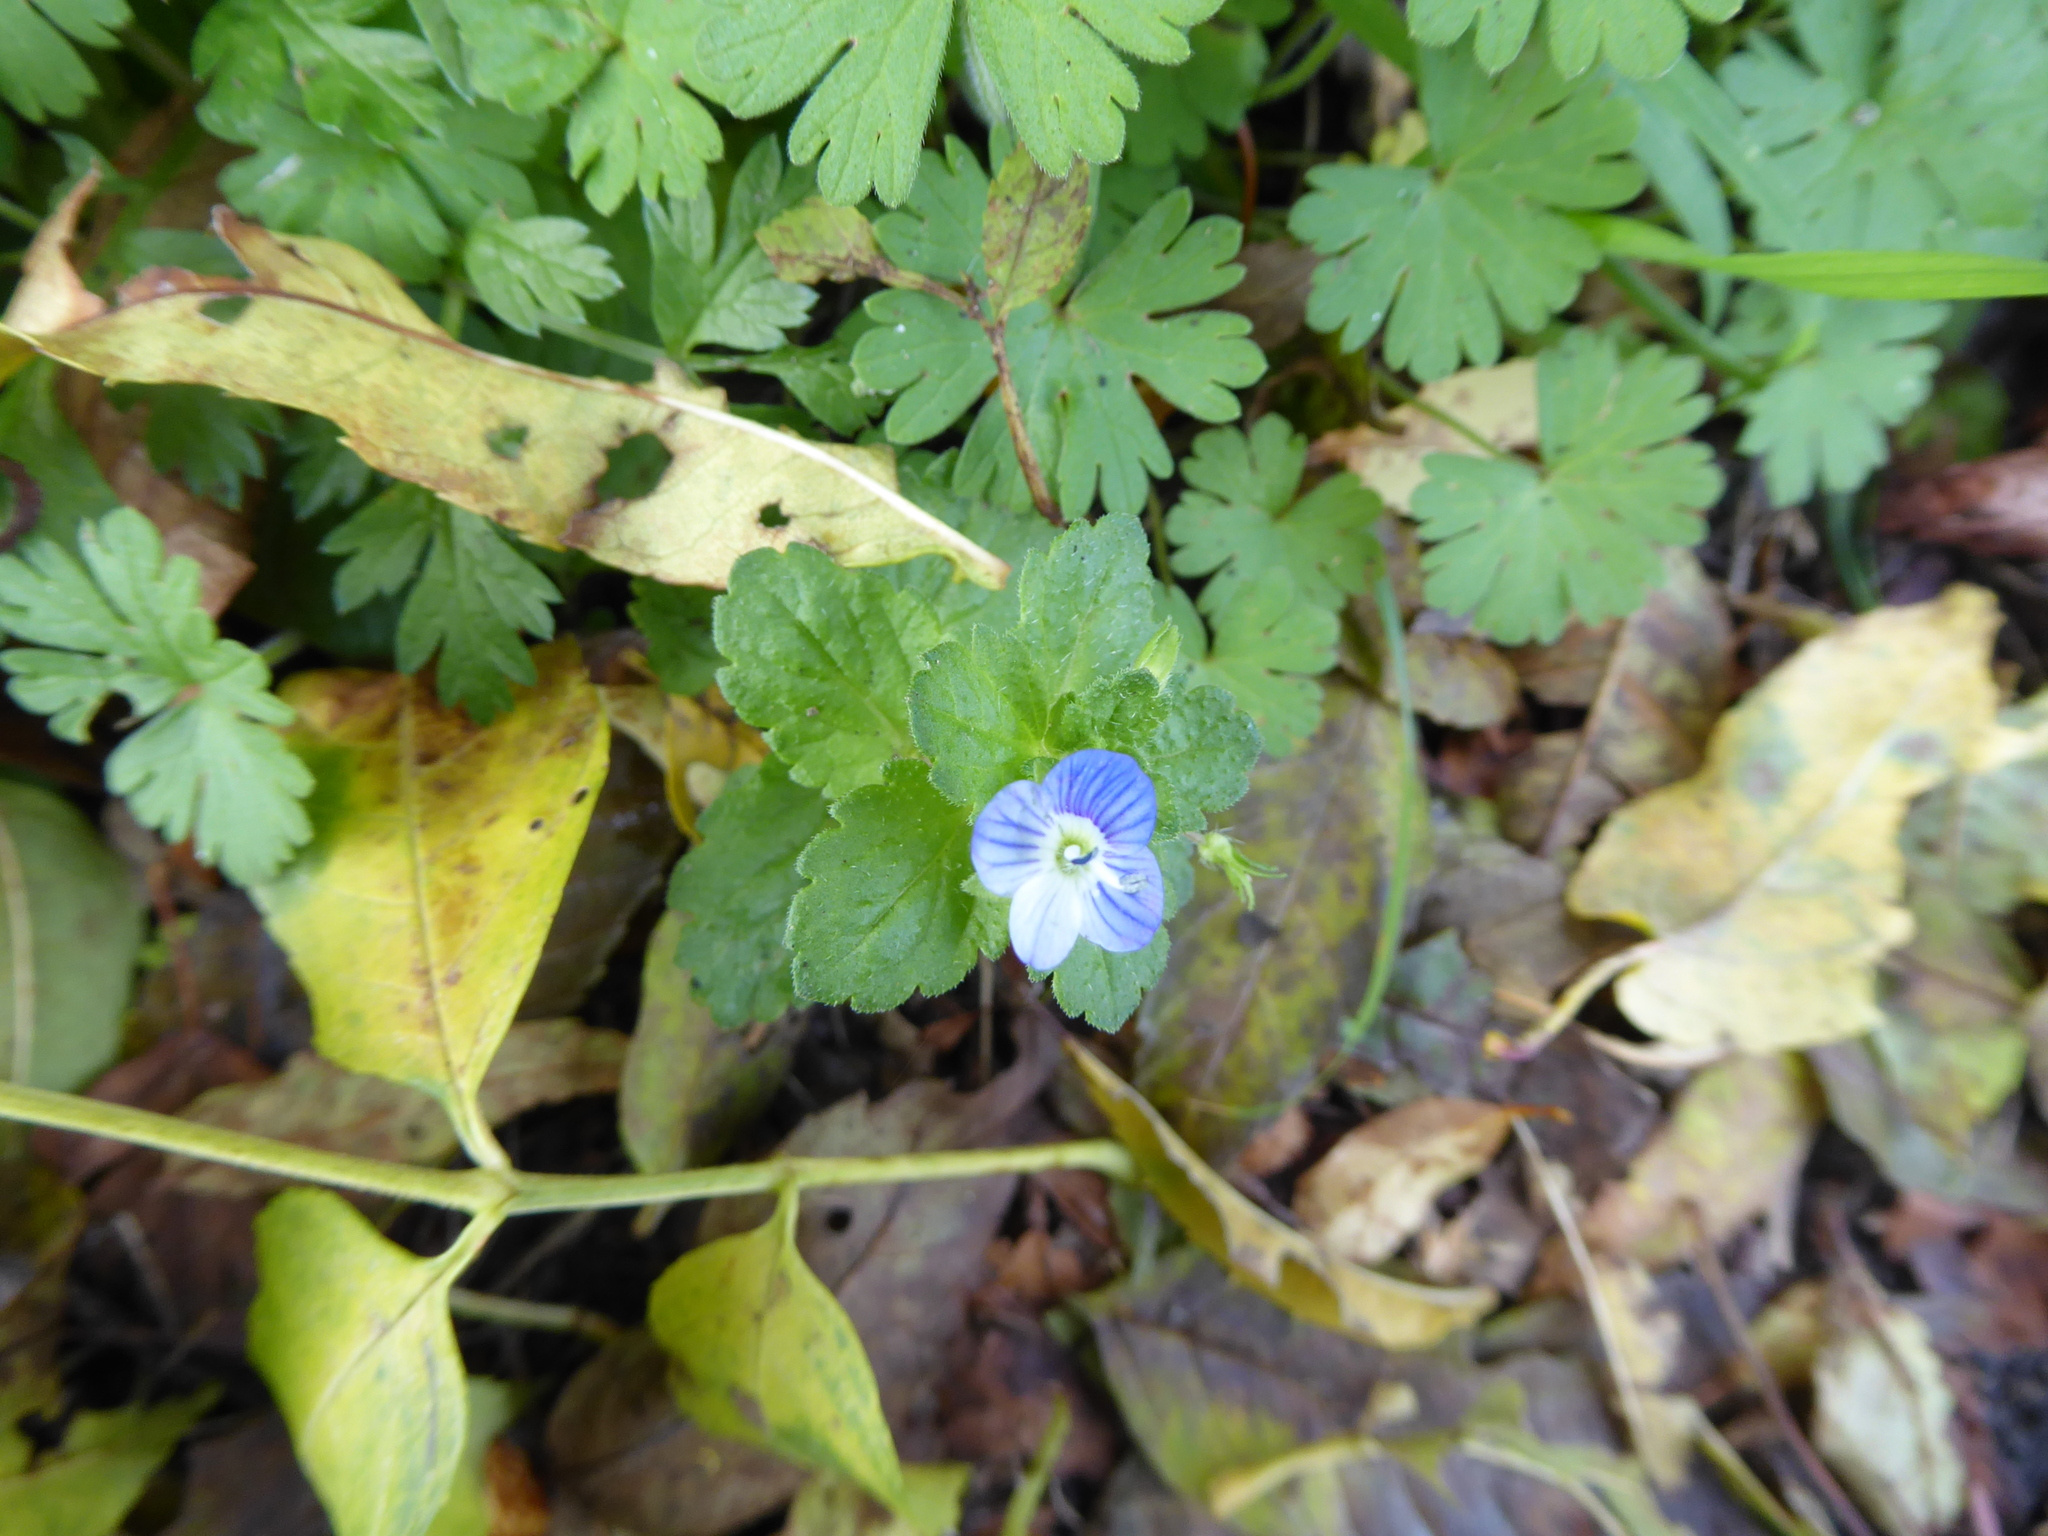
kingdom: Plantae
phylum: Tracheophyta
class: Magnoliopsida
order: Lamiales
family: Plantaginaceae
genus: Veronica
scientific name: Veronica persica
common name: Common field-speedwell
